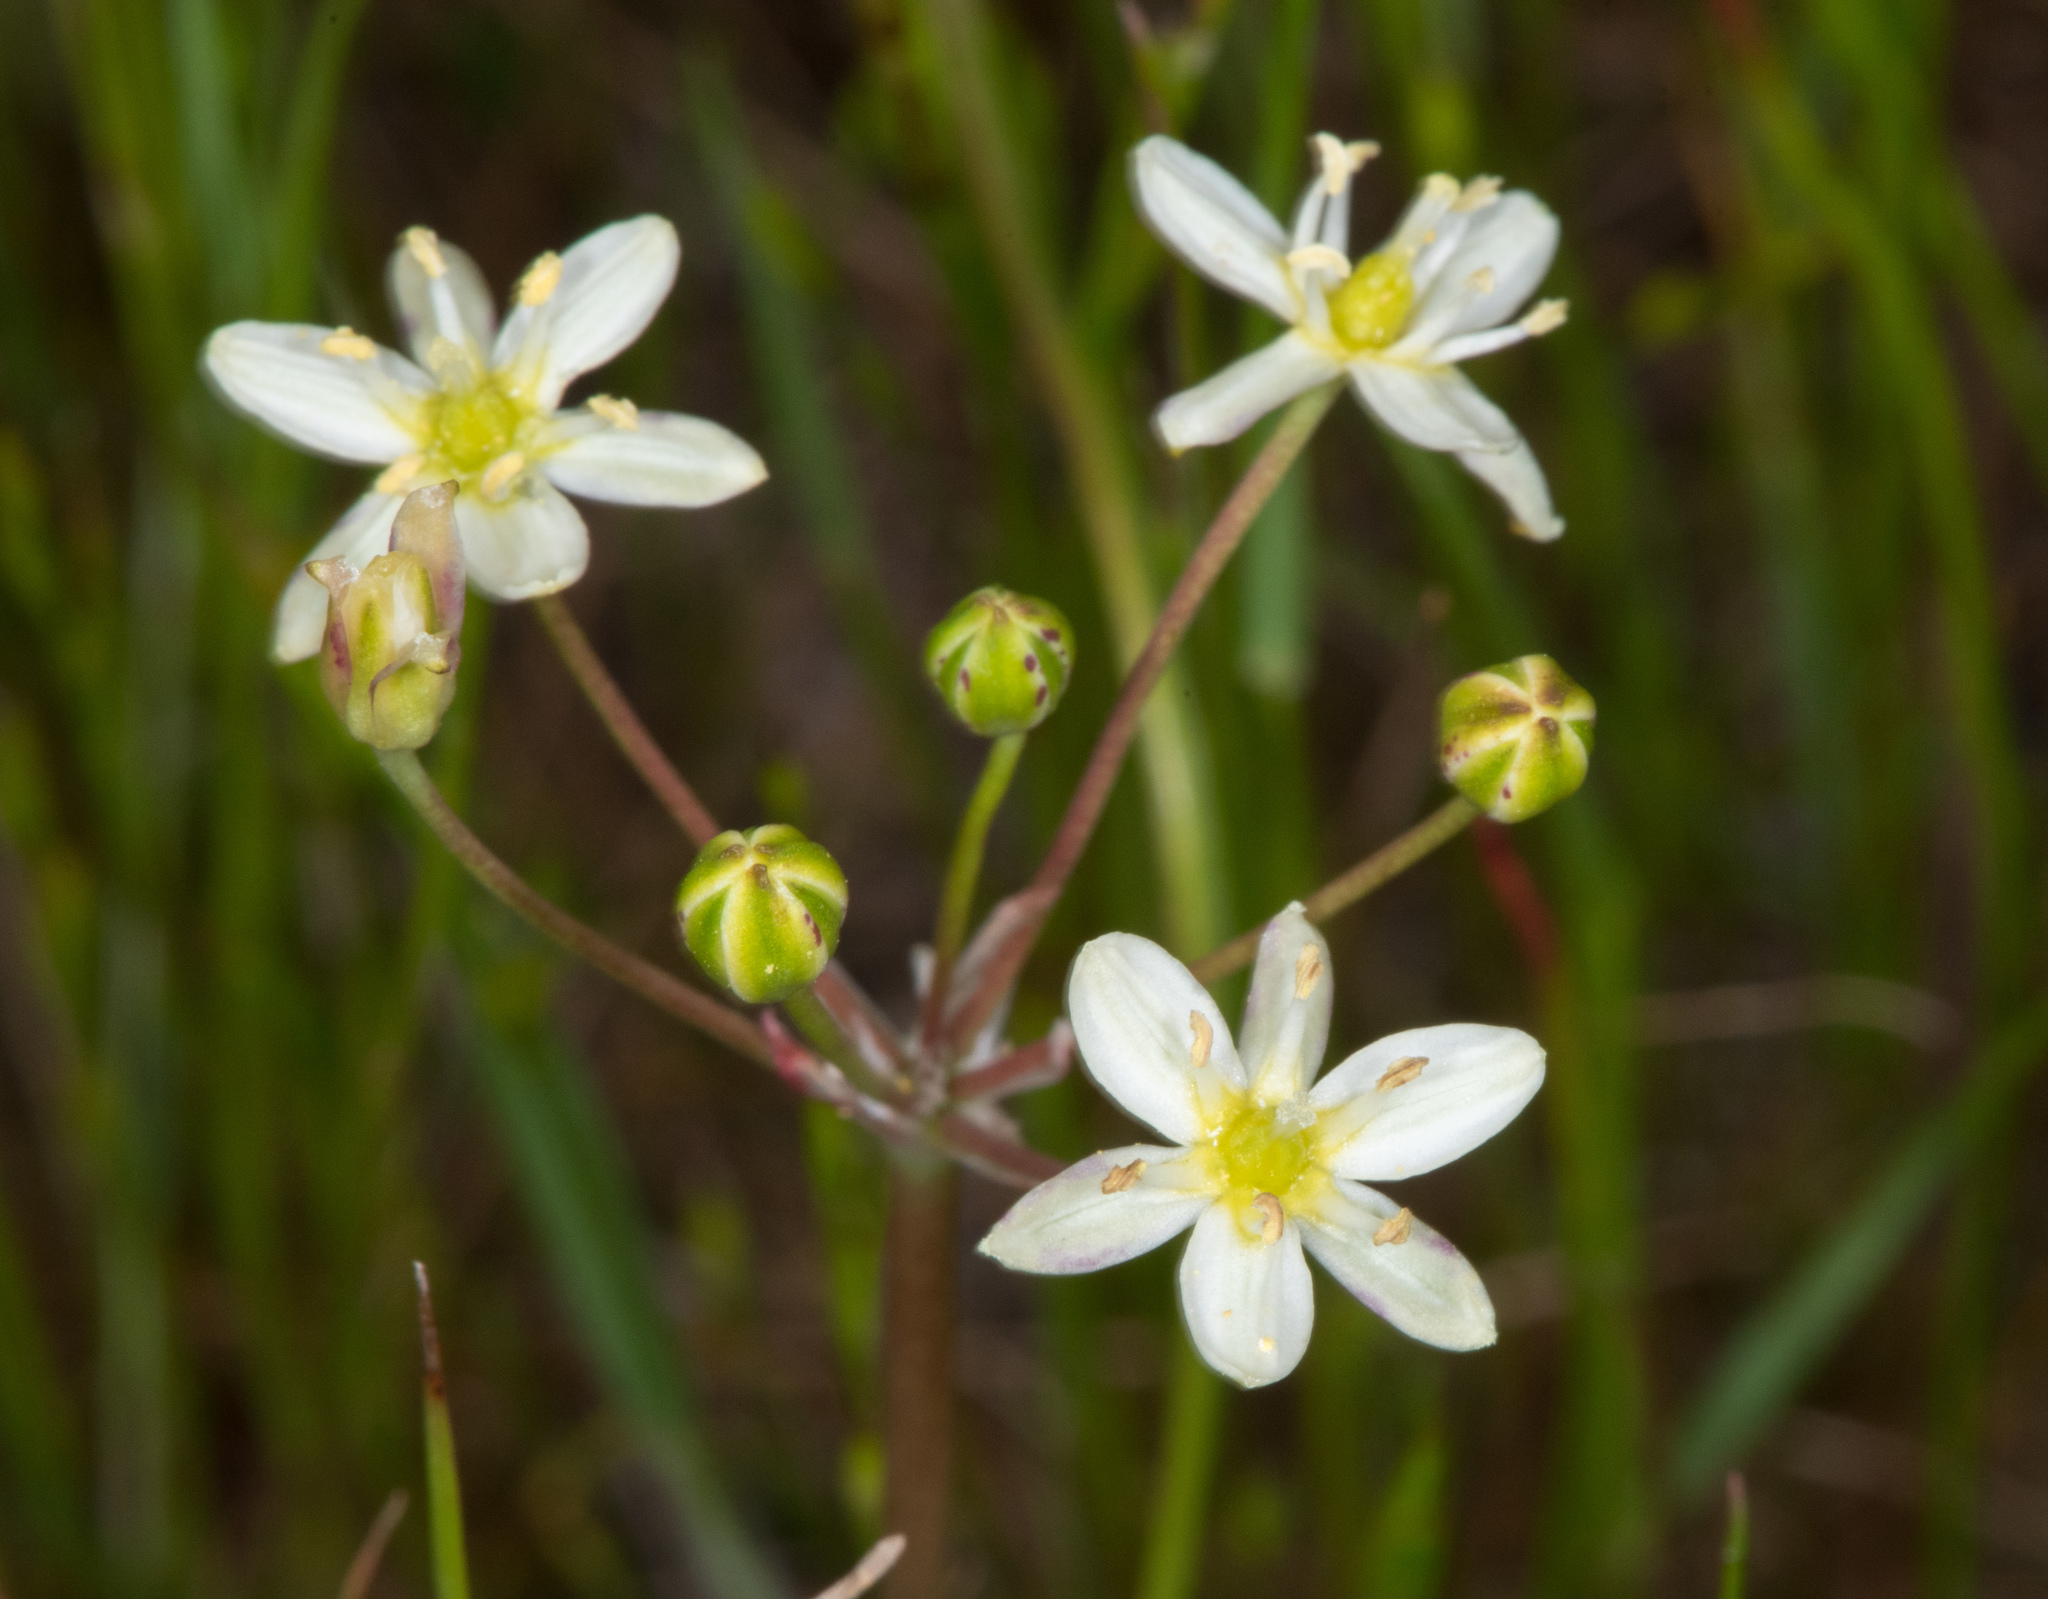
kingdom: Plantae
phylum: Tracheophyta
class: Liliopsida
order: Asparagales
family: Asparagaceae
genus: Muilla
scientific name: Muilla maritima
